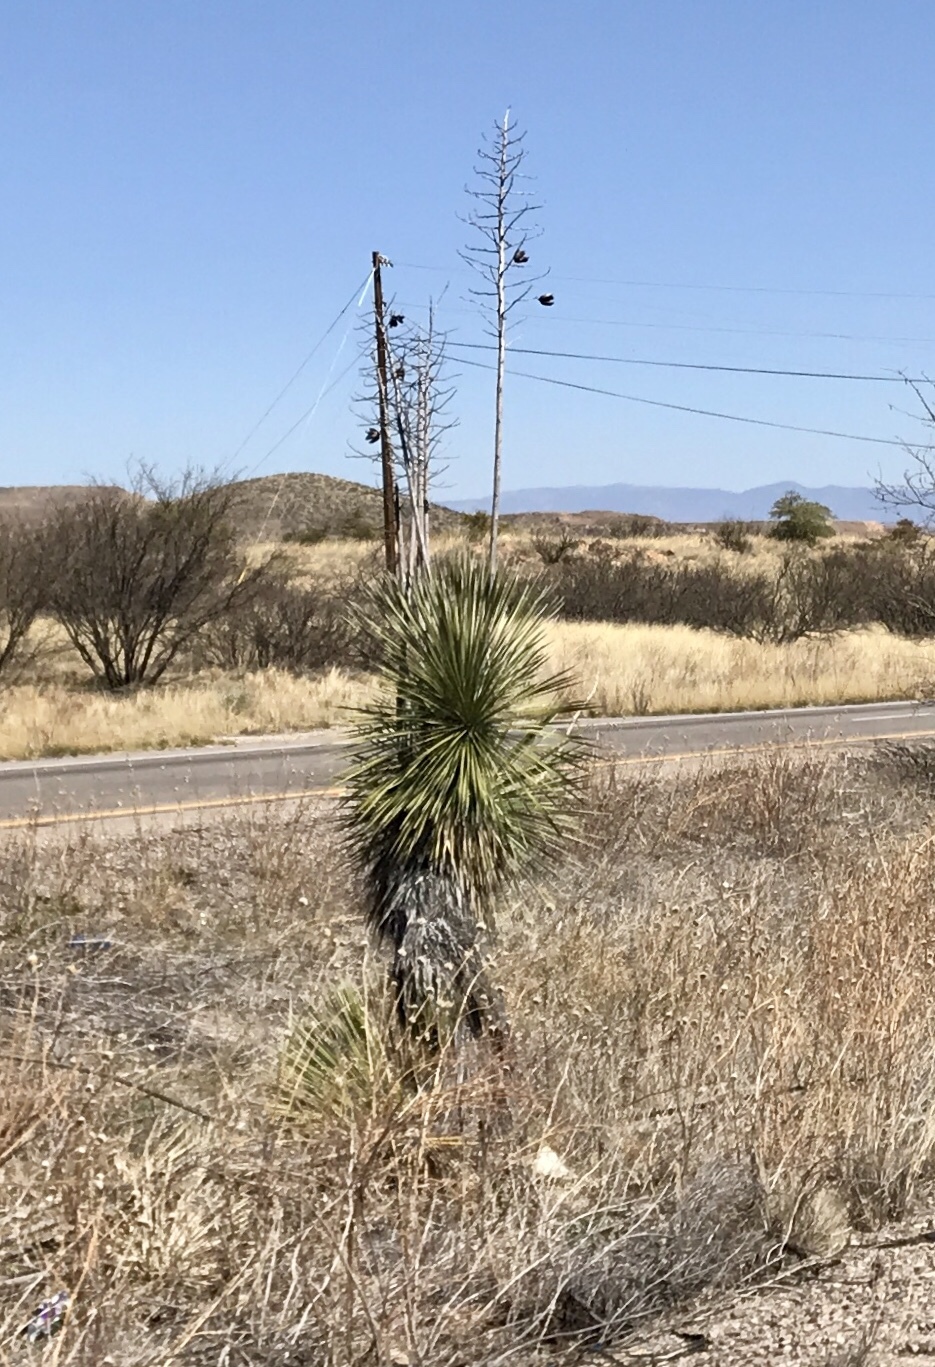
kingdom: Plantae
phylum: Tracheophyta
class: Liliopsida
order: Asparagales
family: Asparagaceae
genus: Yucca
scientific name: Yucca elata
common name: Palmella
